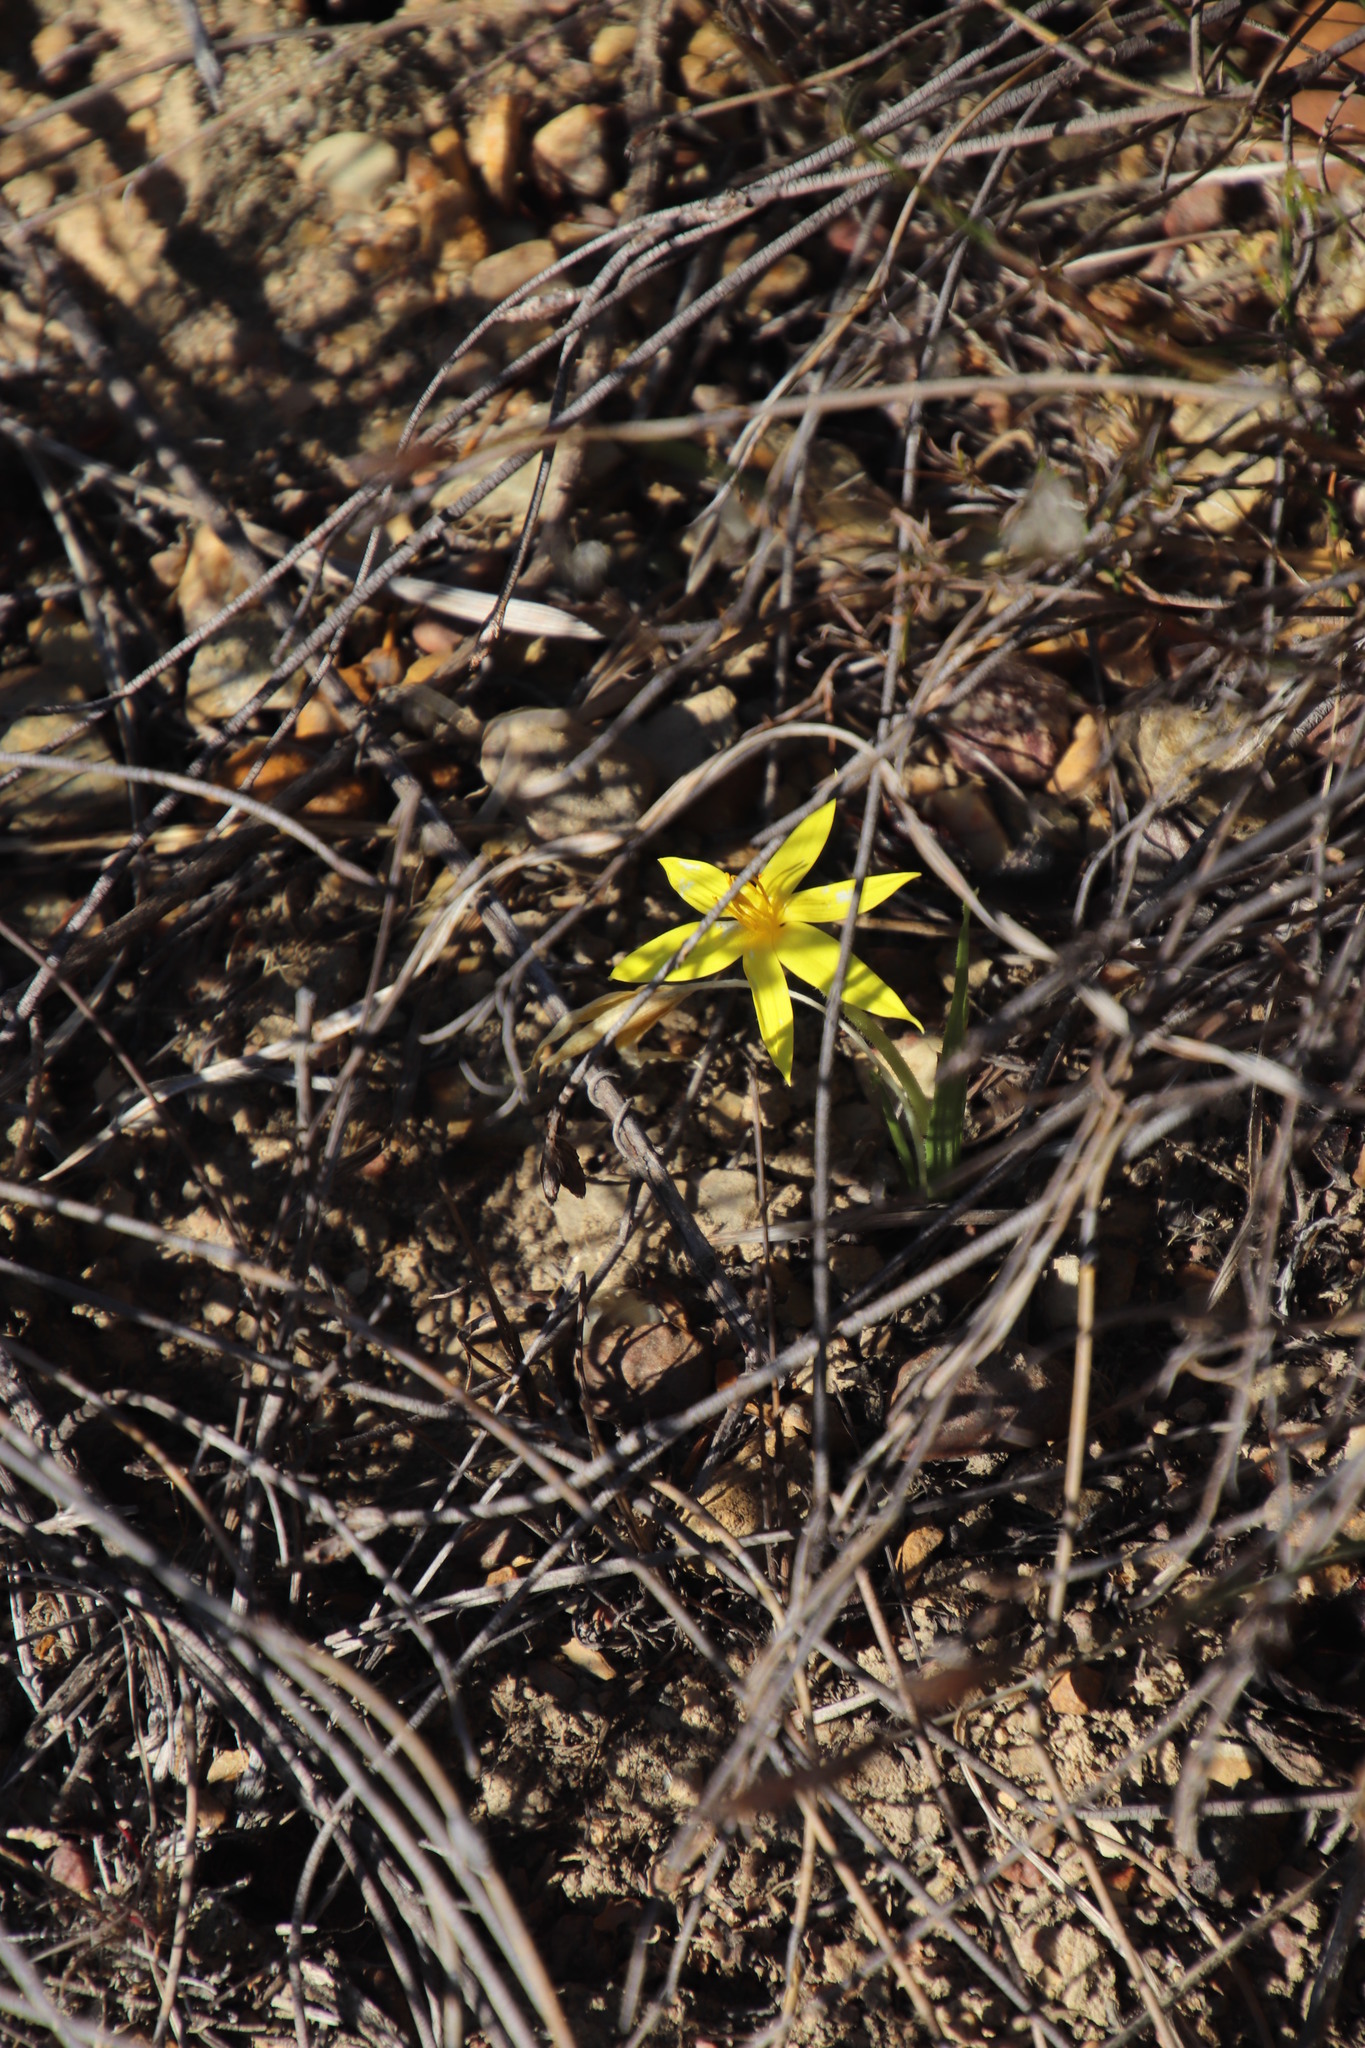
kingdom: Plantae
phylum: Tracheophyta
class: Liliopsida
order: Asparagales
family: Hypoxidaceae
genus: Empodium
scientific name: Empodium plicatum
